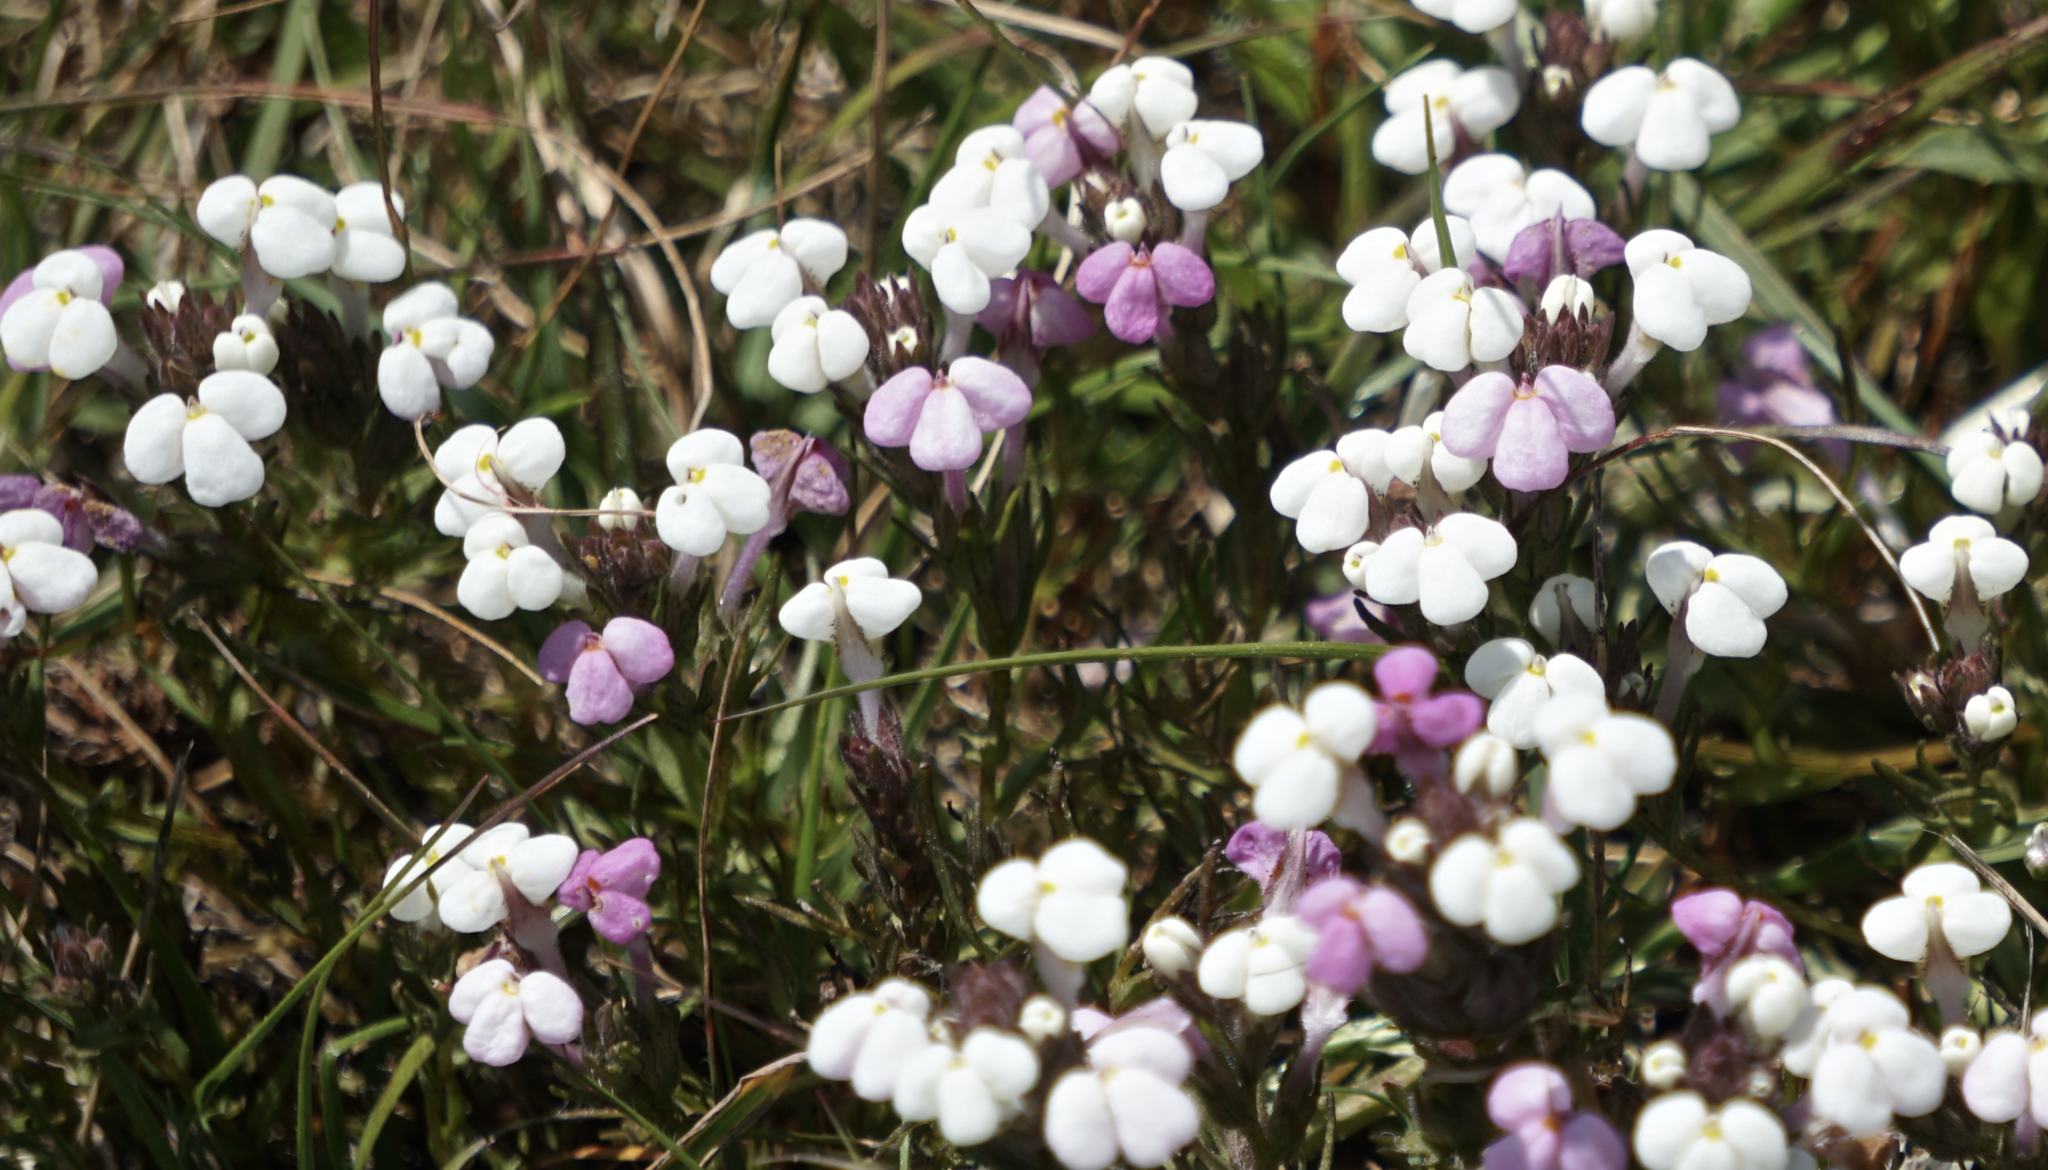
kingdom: Plantae
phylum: Tracheophyta
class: Magnoliopsida
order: Lamiales
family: Orobanchaceae
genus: Triphysaria
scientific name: Triphysaria eriantha
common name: Johnny-tuck
